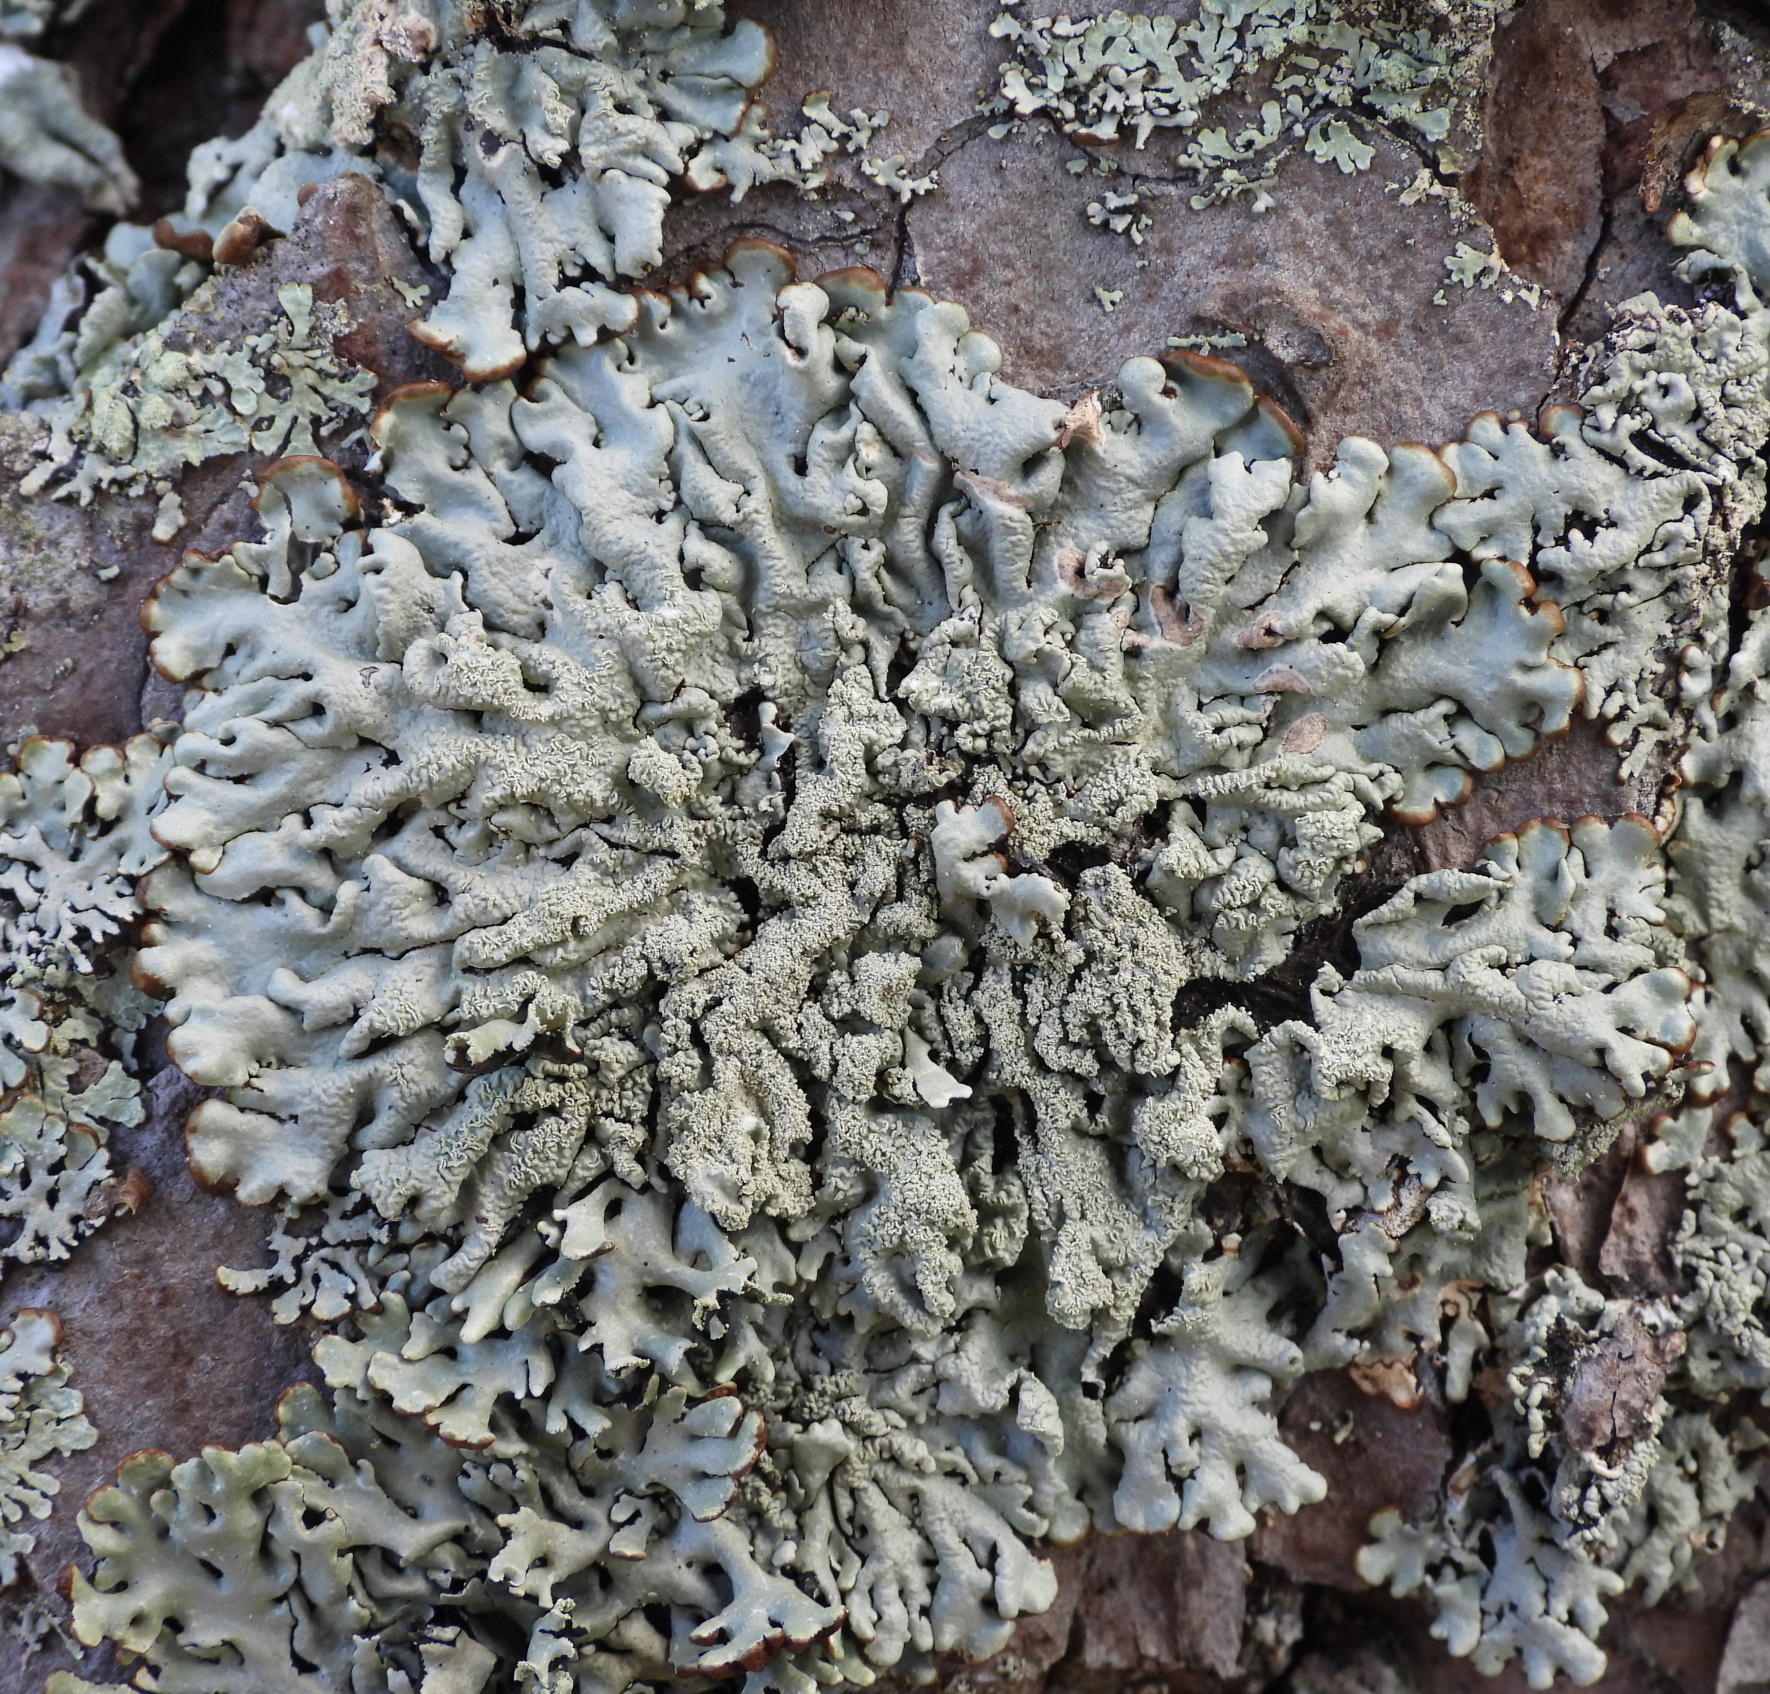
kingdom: Fungi
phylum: Ascomycota
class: Lecanoromycetes
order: Lecanorales
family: Parmeliaceae
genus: Hypogymnia
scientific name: Hypogymnia farinacea
